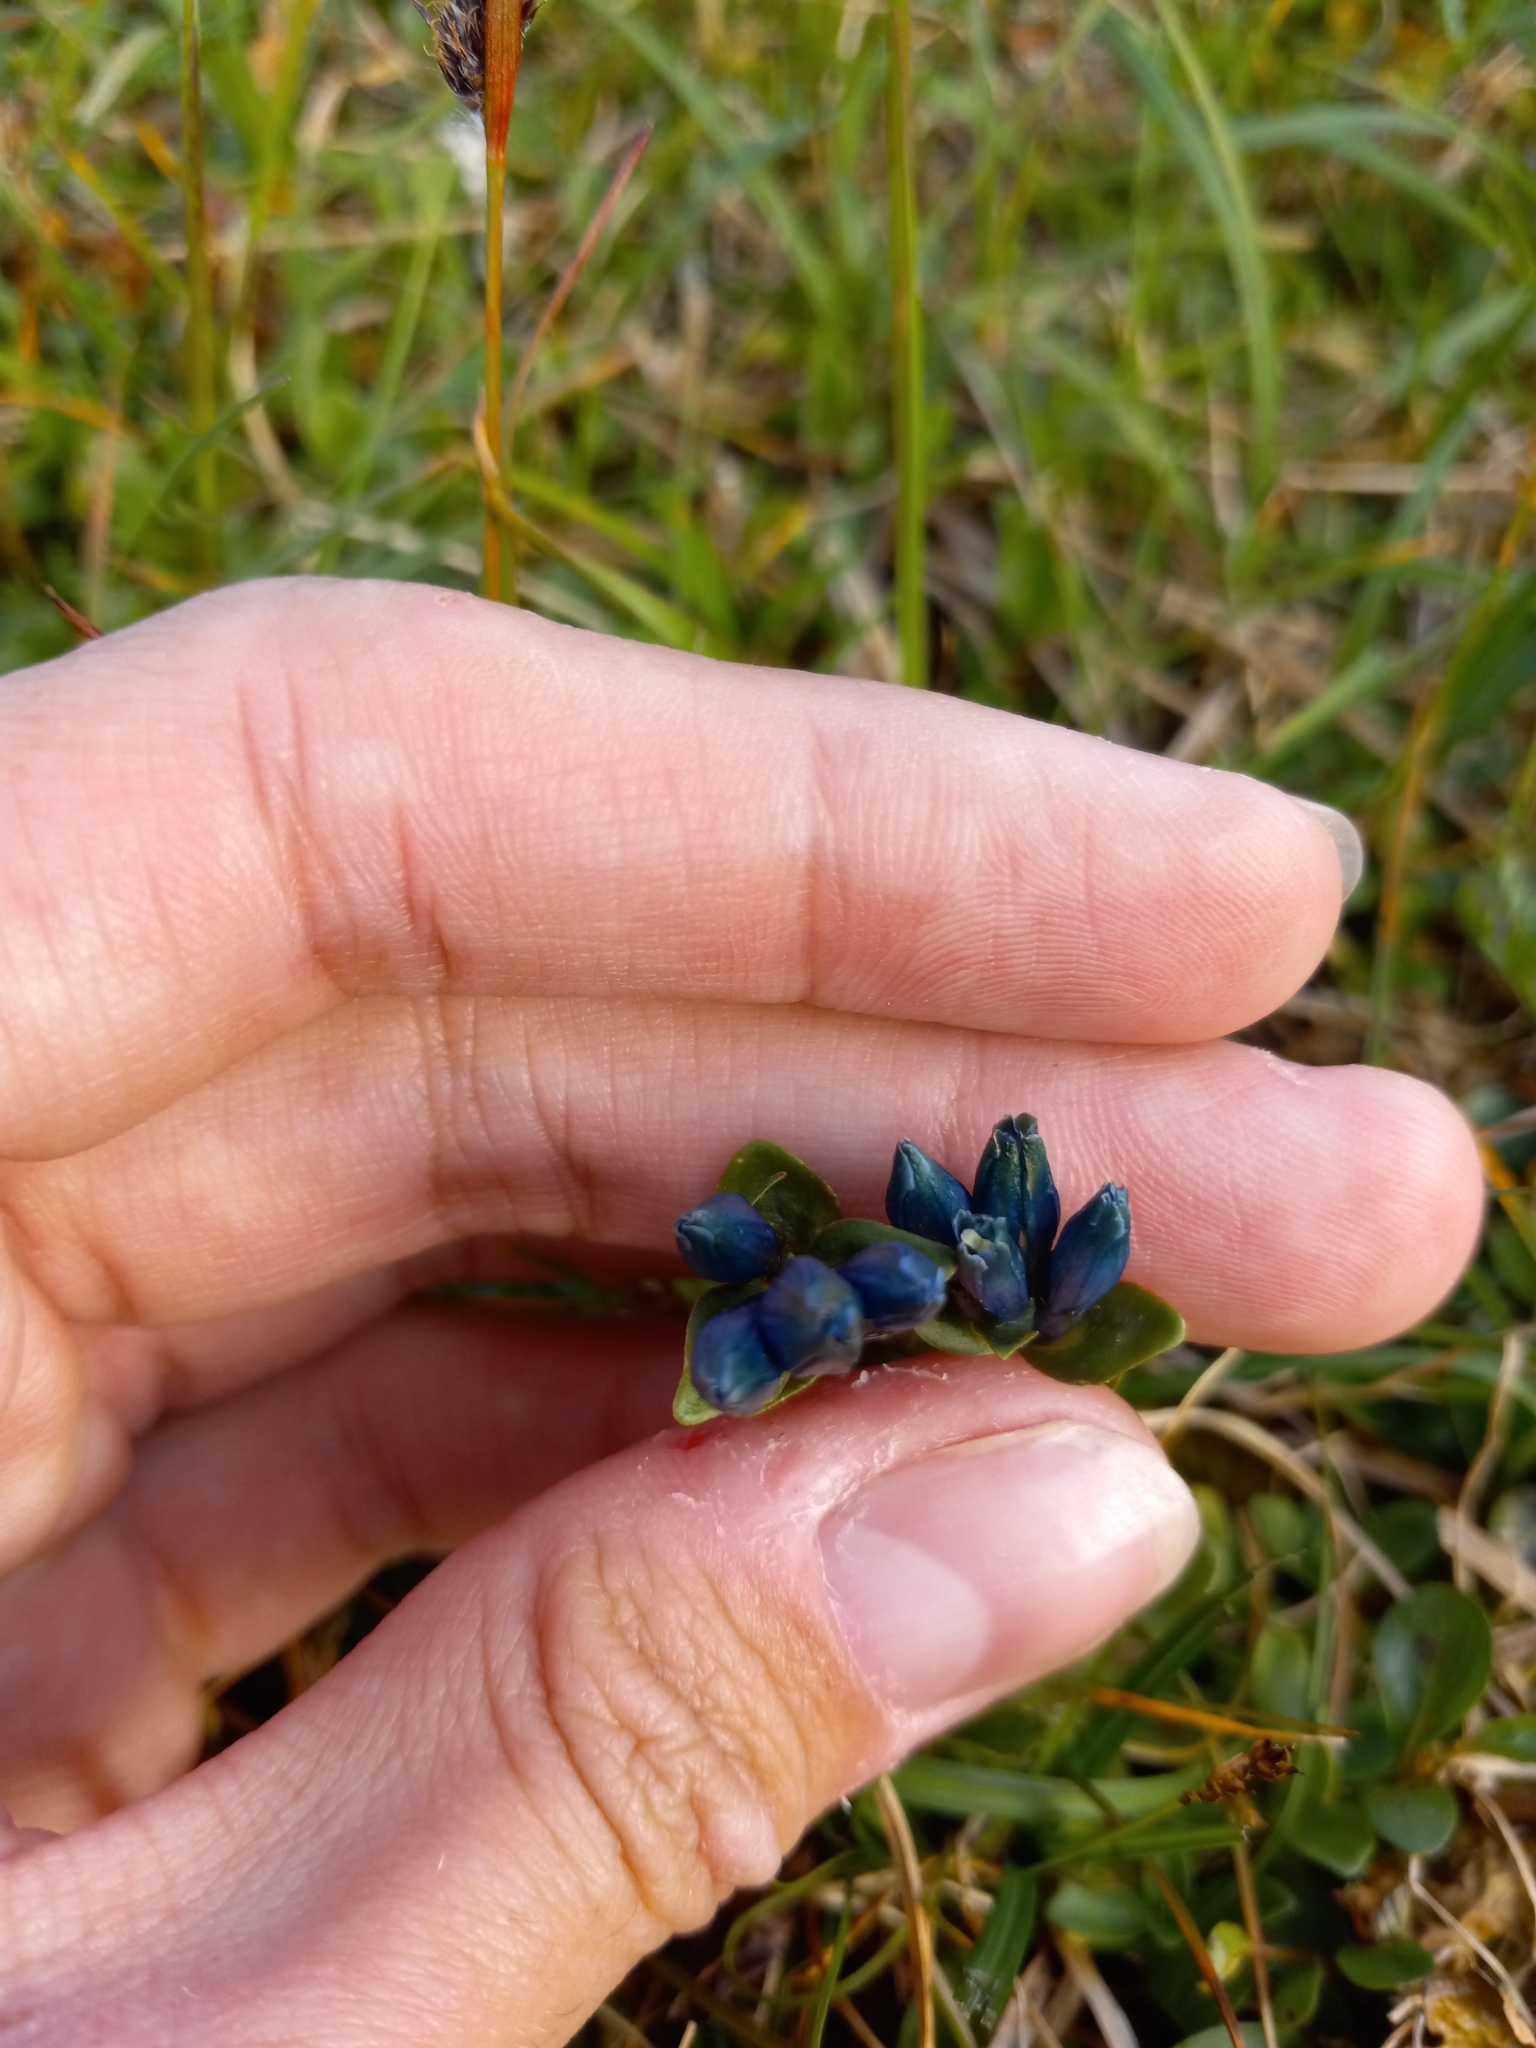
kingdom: Plantae
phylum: Tracheophyta
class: Magnoliopsida
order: Gentianales
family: Gentianaceae
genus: Gentiana
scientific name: Gentiana glauca
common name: Alpine gentian
